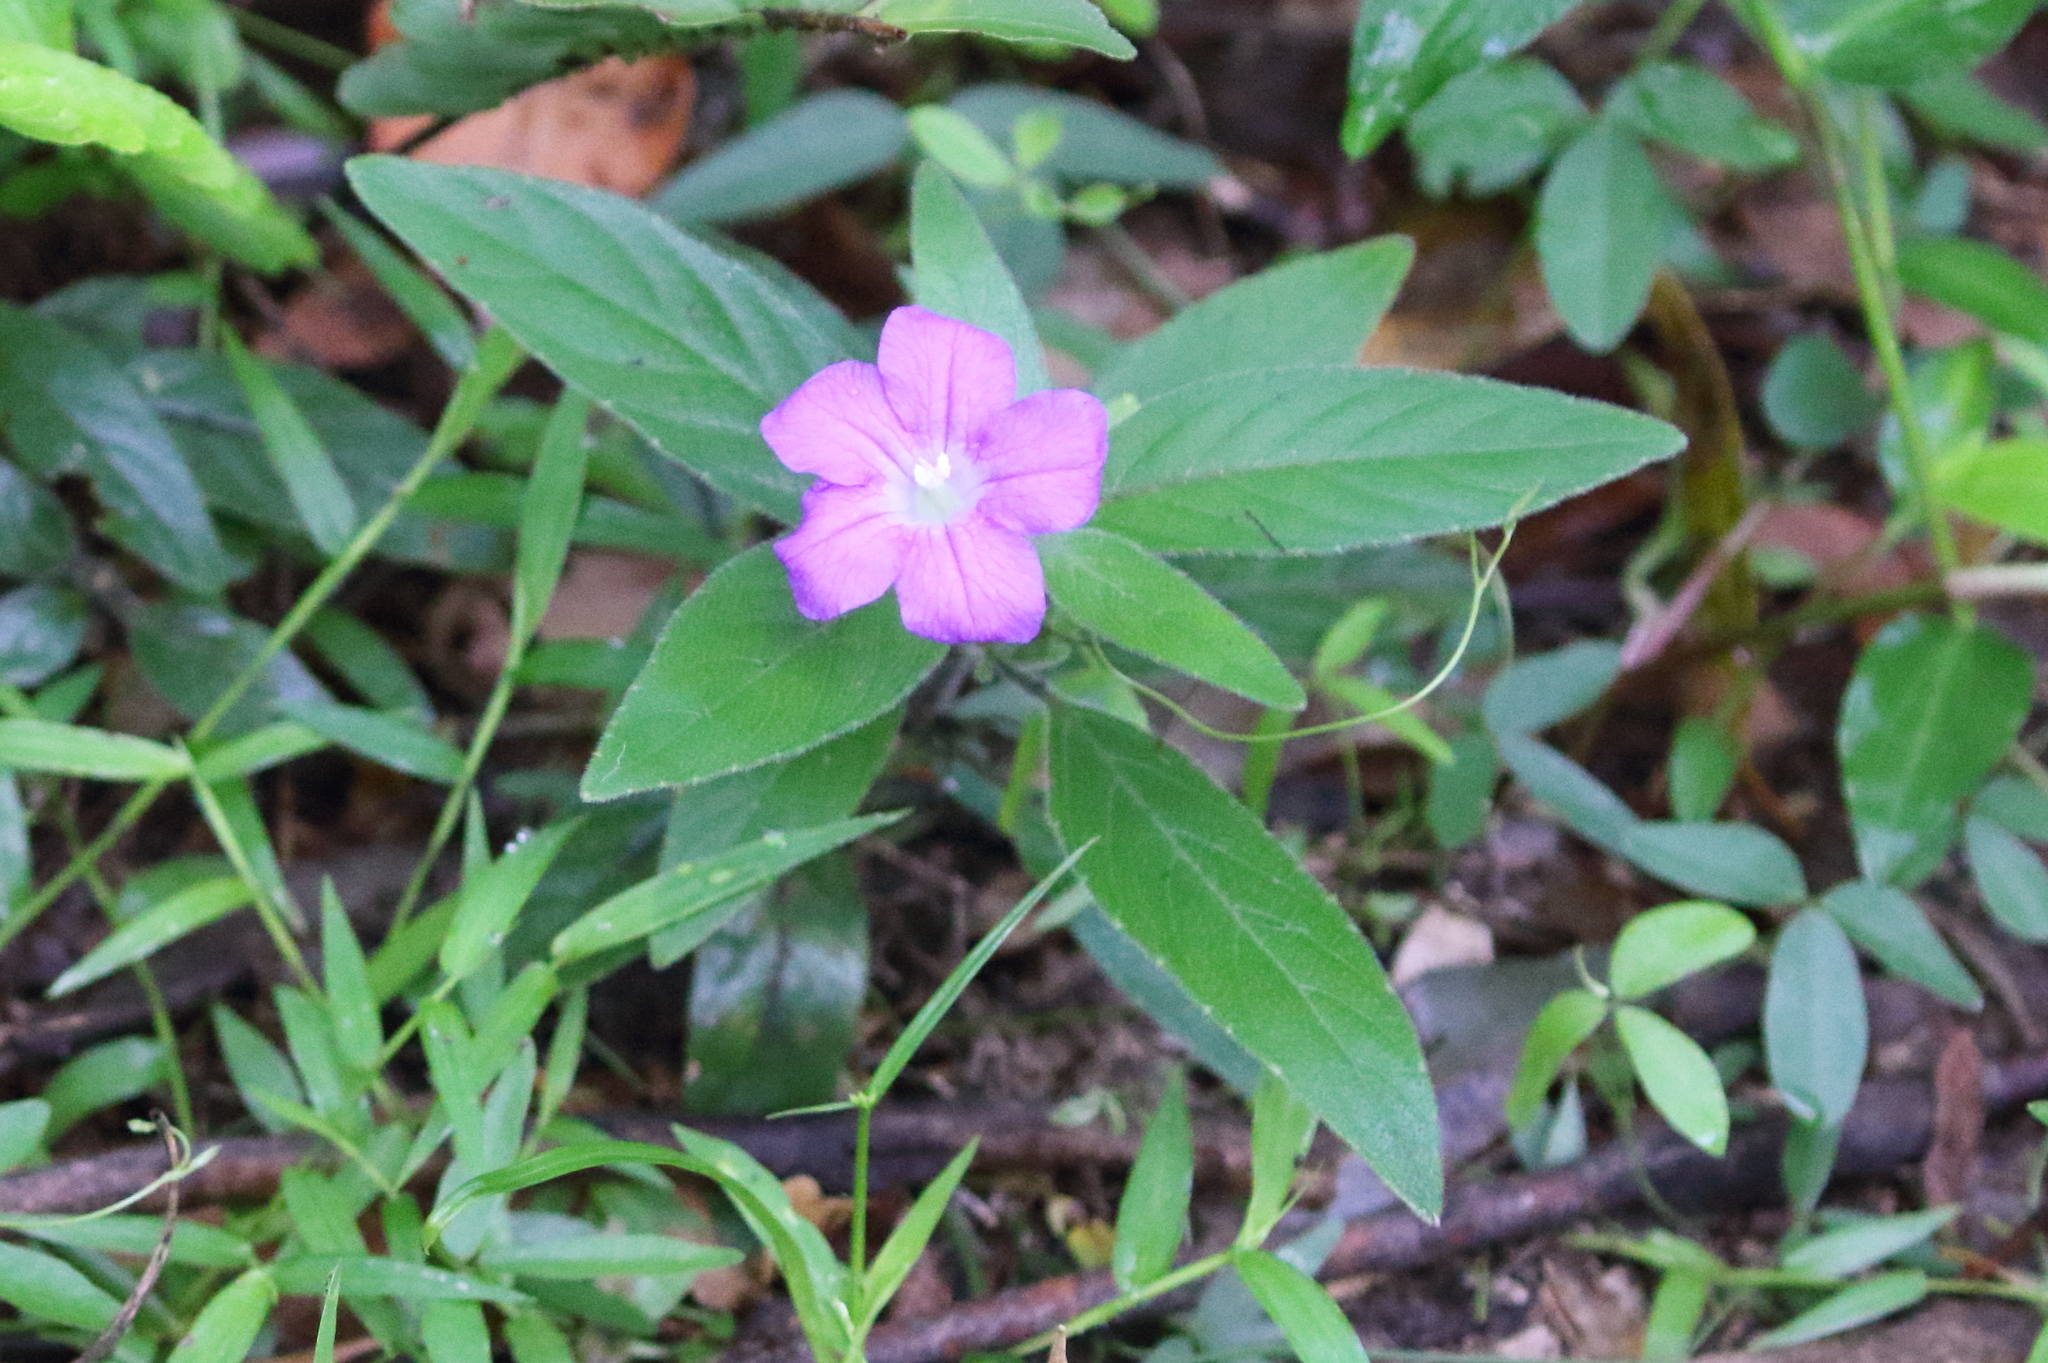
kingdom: Plantae
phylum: Tracheophyta
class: Magnoliopsida
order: Lamiales
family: Acanthaceae
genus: Ruellia
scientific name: Ruellia squarrosa
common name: Water bluebell
